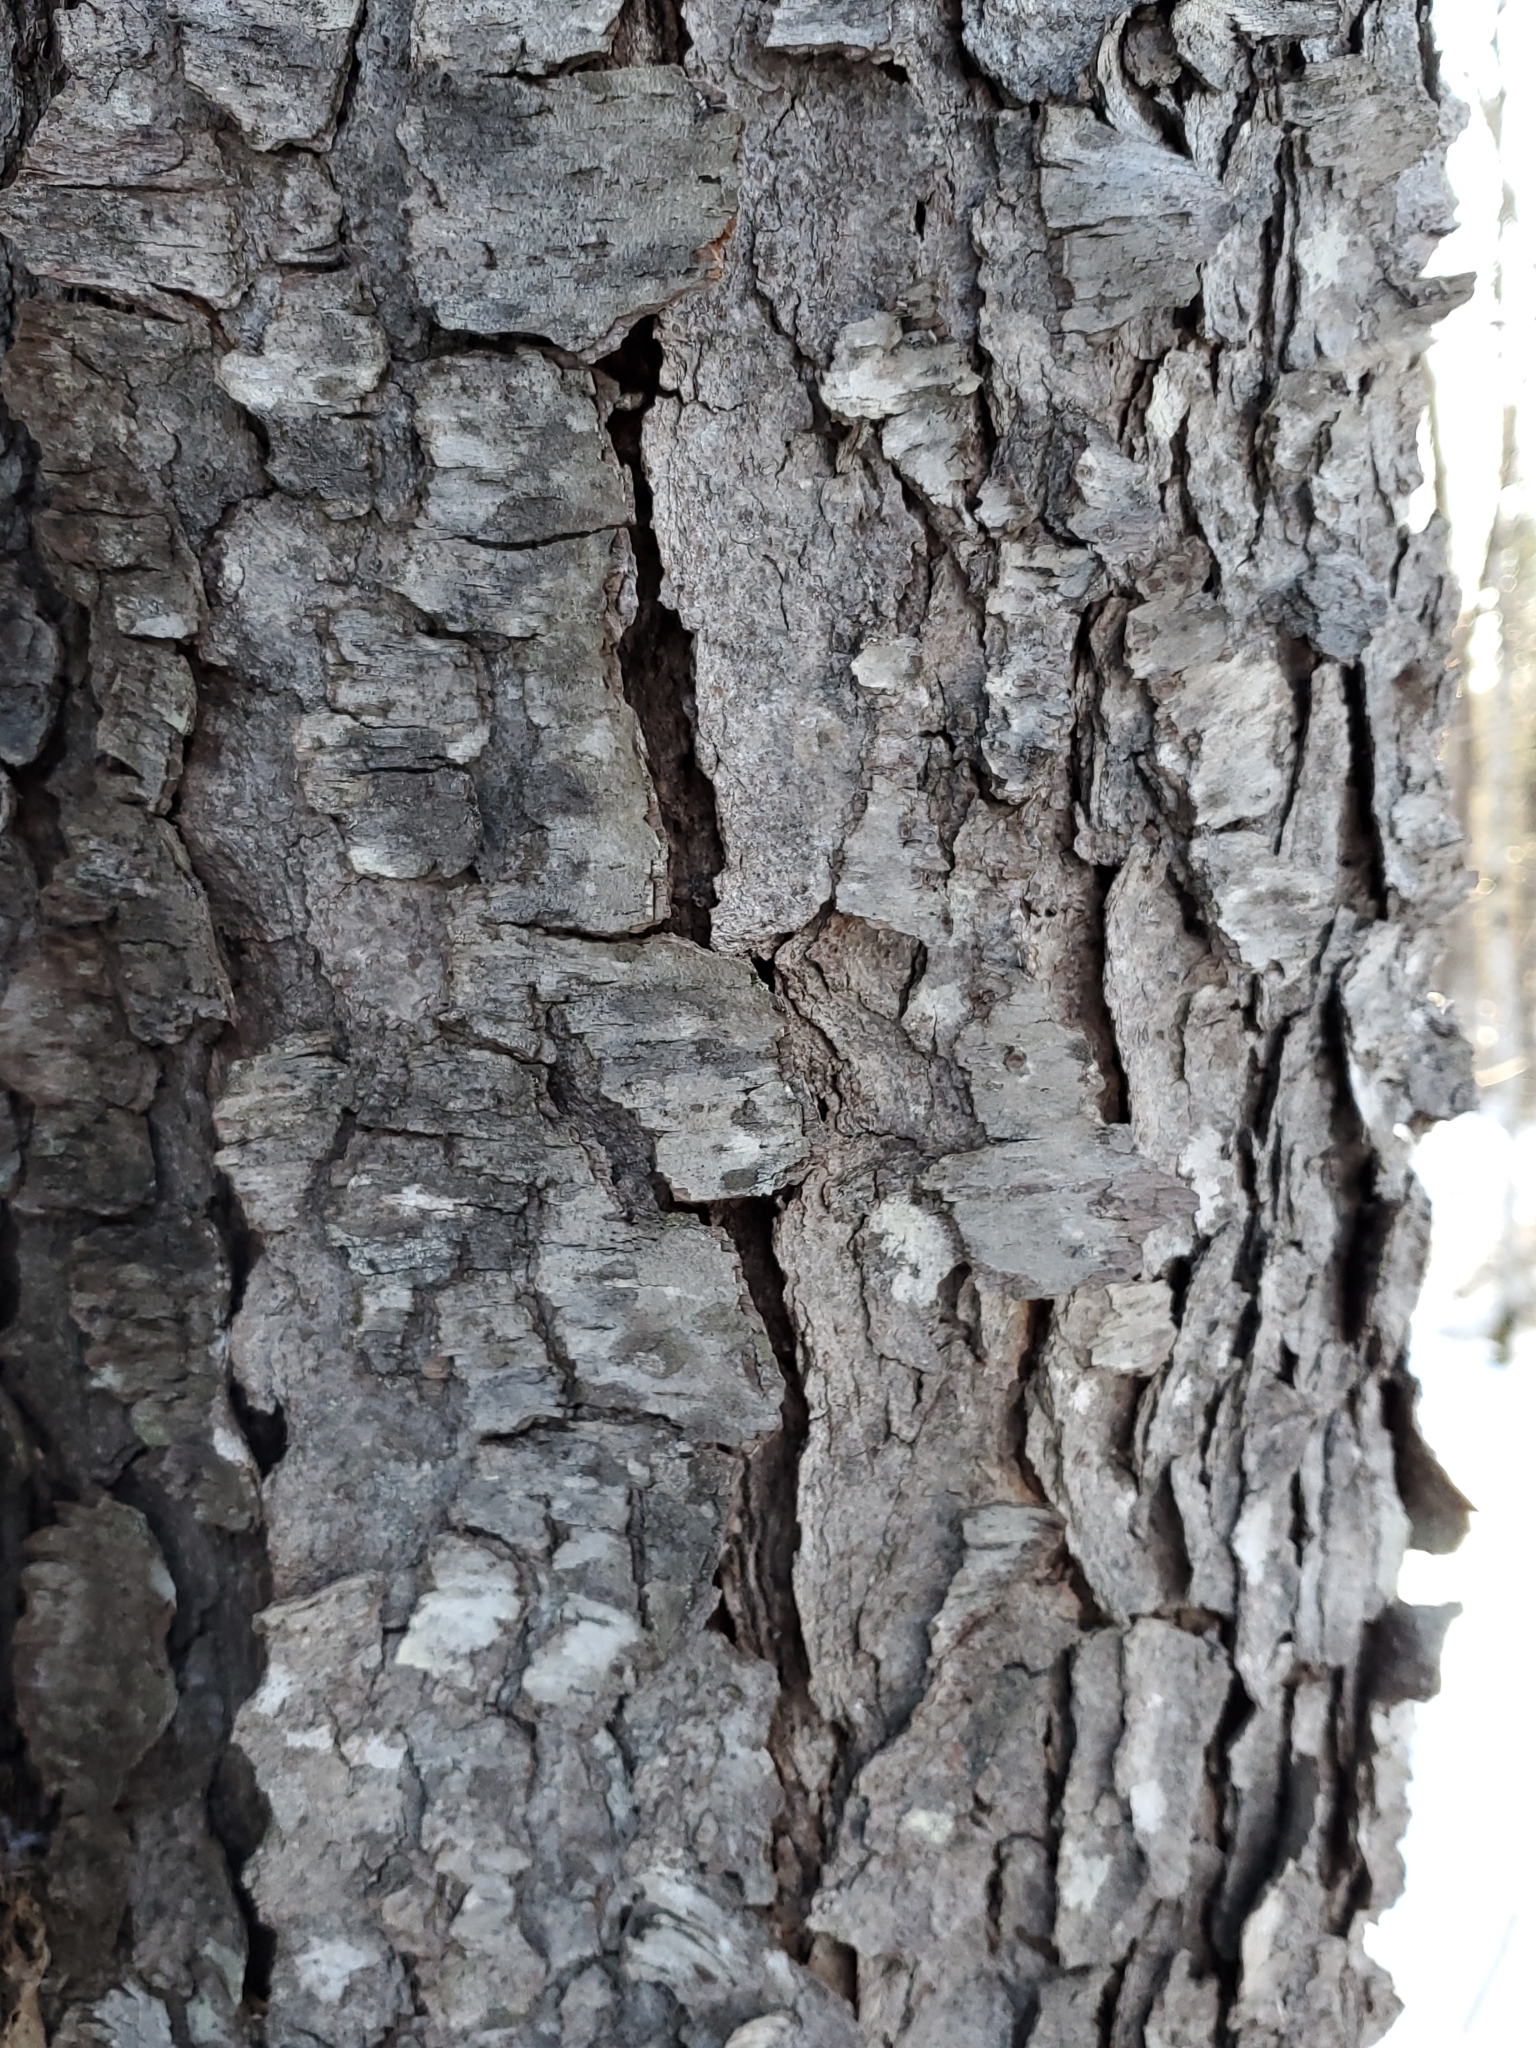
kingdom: Plantae
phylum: Tracheophyta
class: Magnoliopsida
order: Rosales
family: Rosaceae
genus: Prunus
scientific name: Prunus serotina
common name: Black cherry
